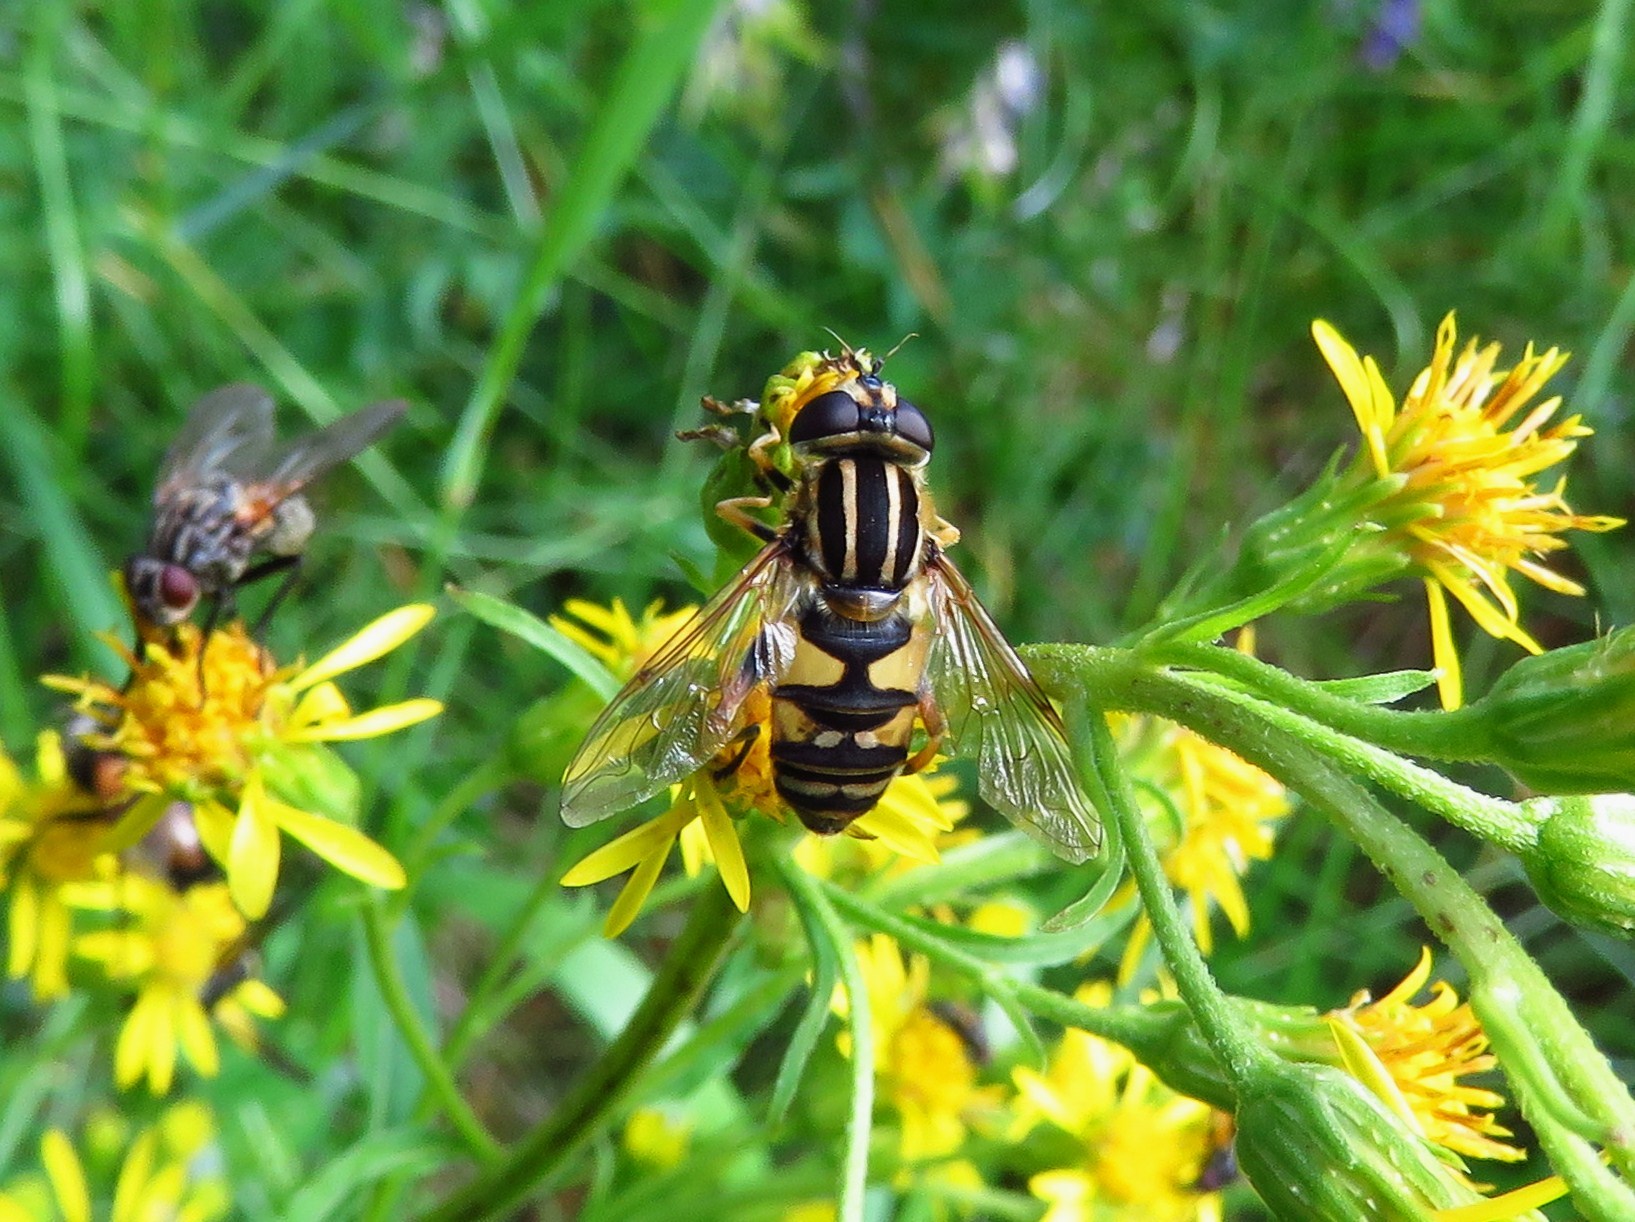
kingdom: Animalia
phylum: Arthropoda
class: Insecta
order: Diptera
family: Syrphidae
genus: Helophilus
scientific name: Helophilus pendulus
